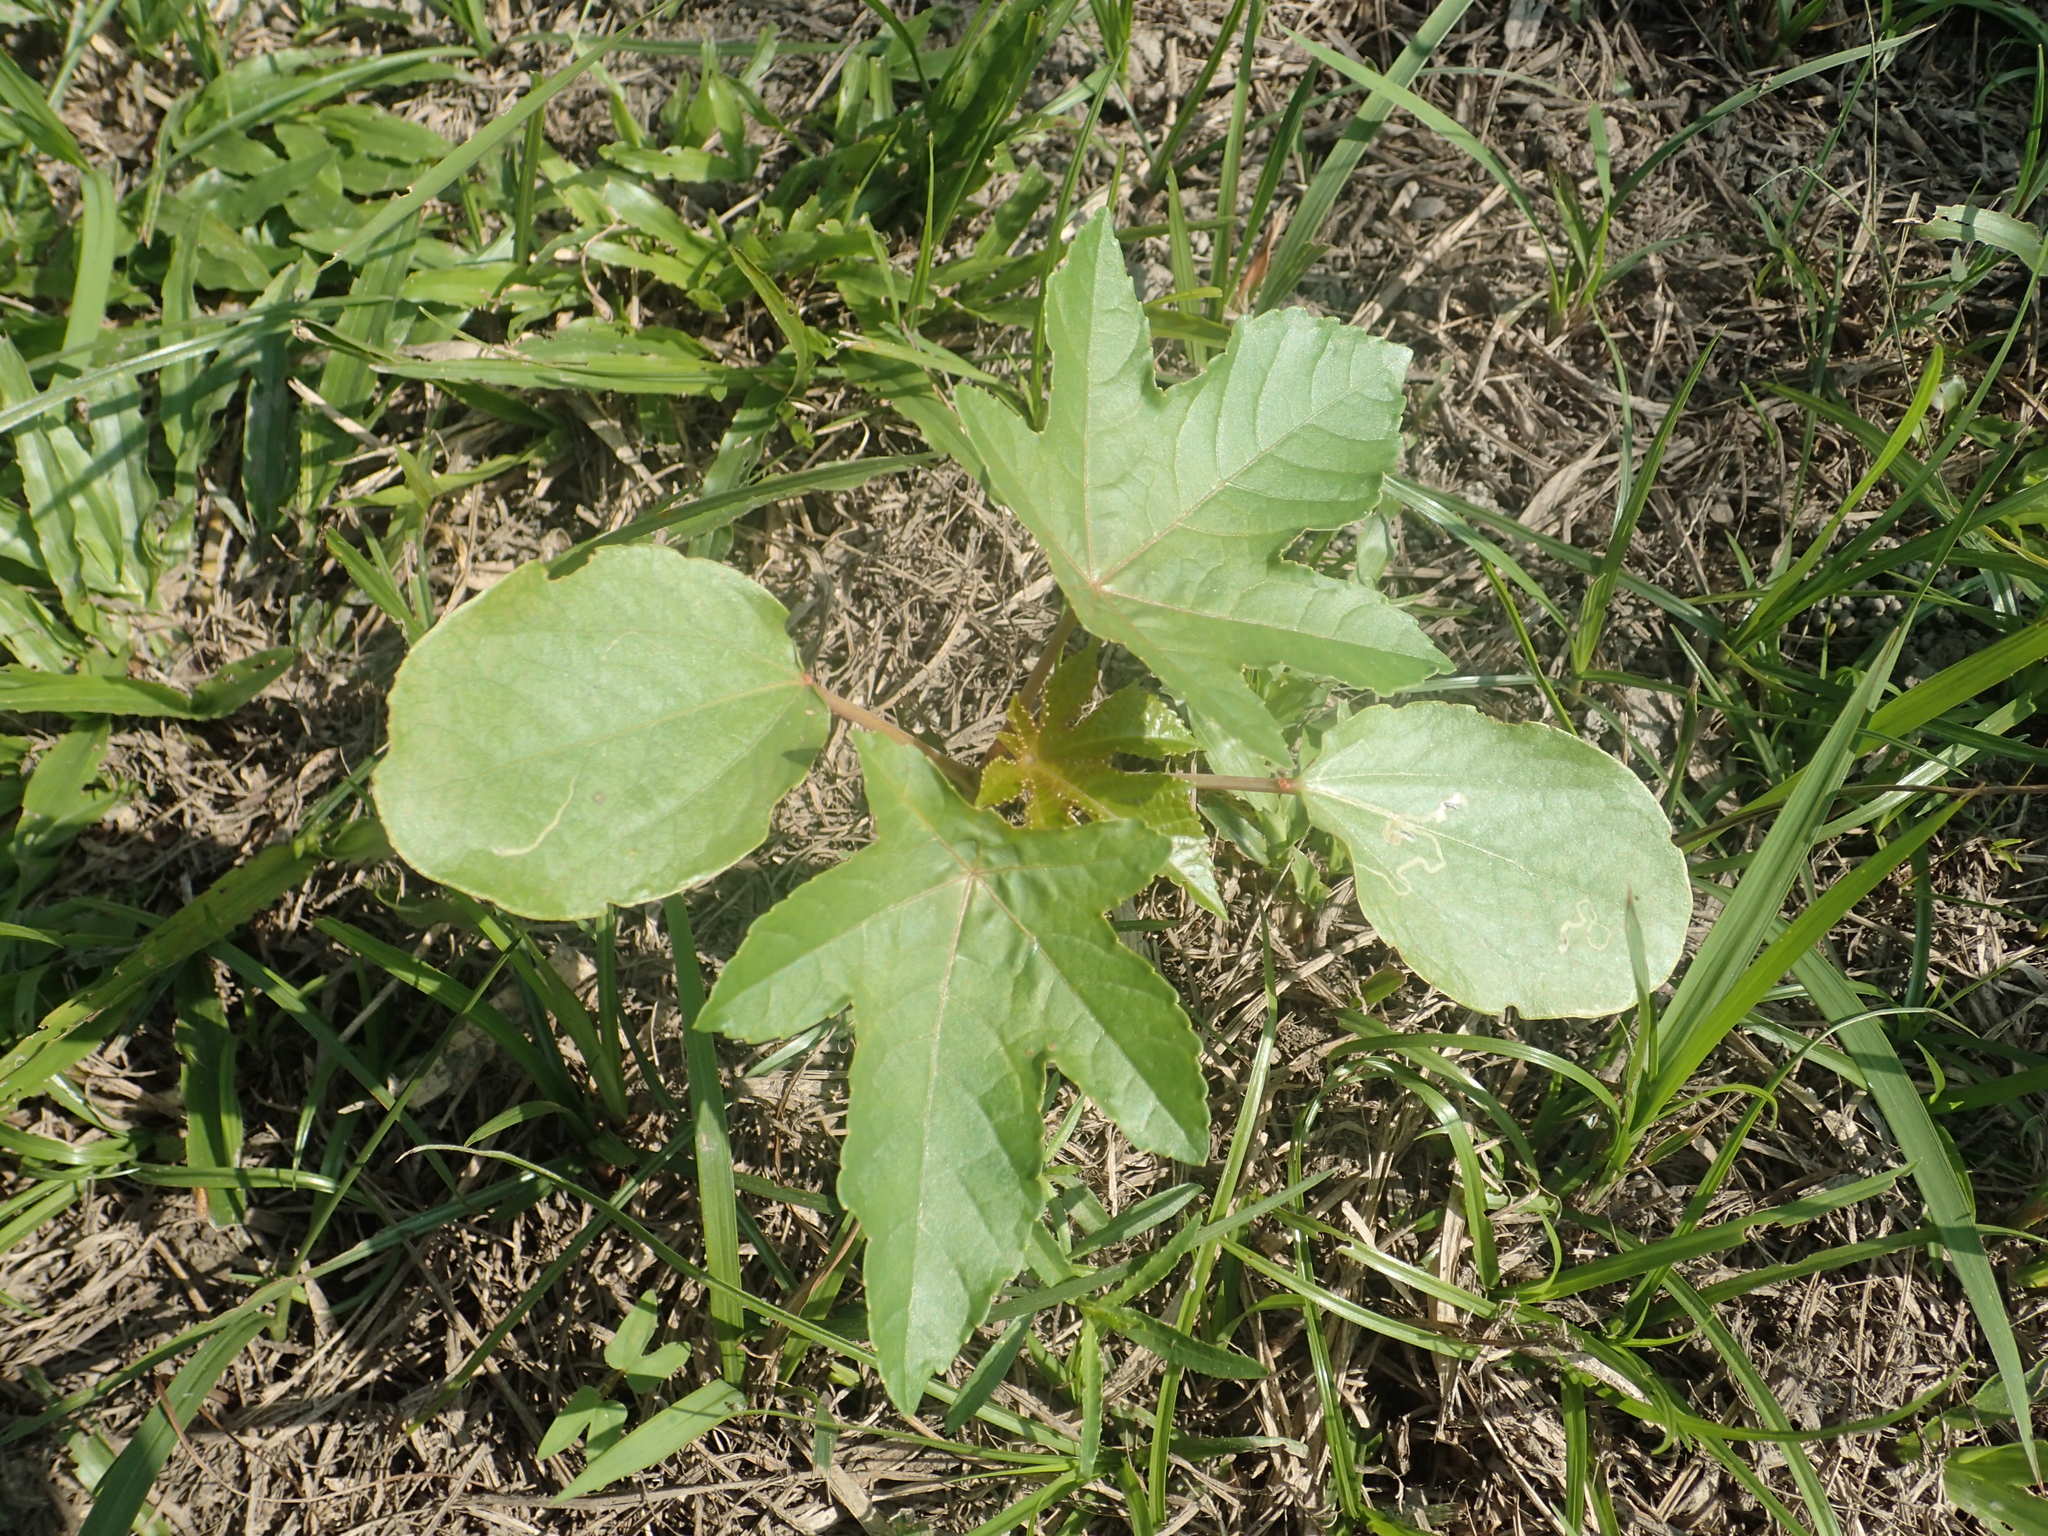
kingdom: Plantae
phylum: Tracheophyta
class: Magnoliopsida
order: Malpighiales
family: Euphorbiaceae
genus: Ricinus
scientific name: Ricinus communis
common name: Castor-oil-plant
